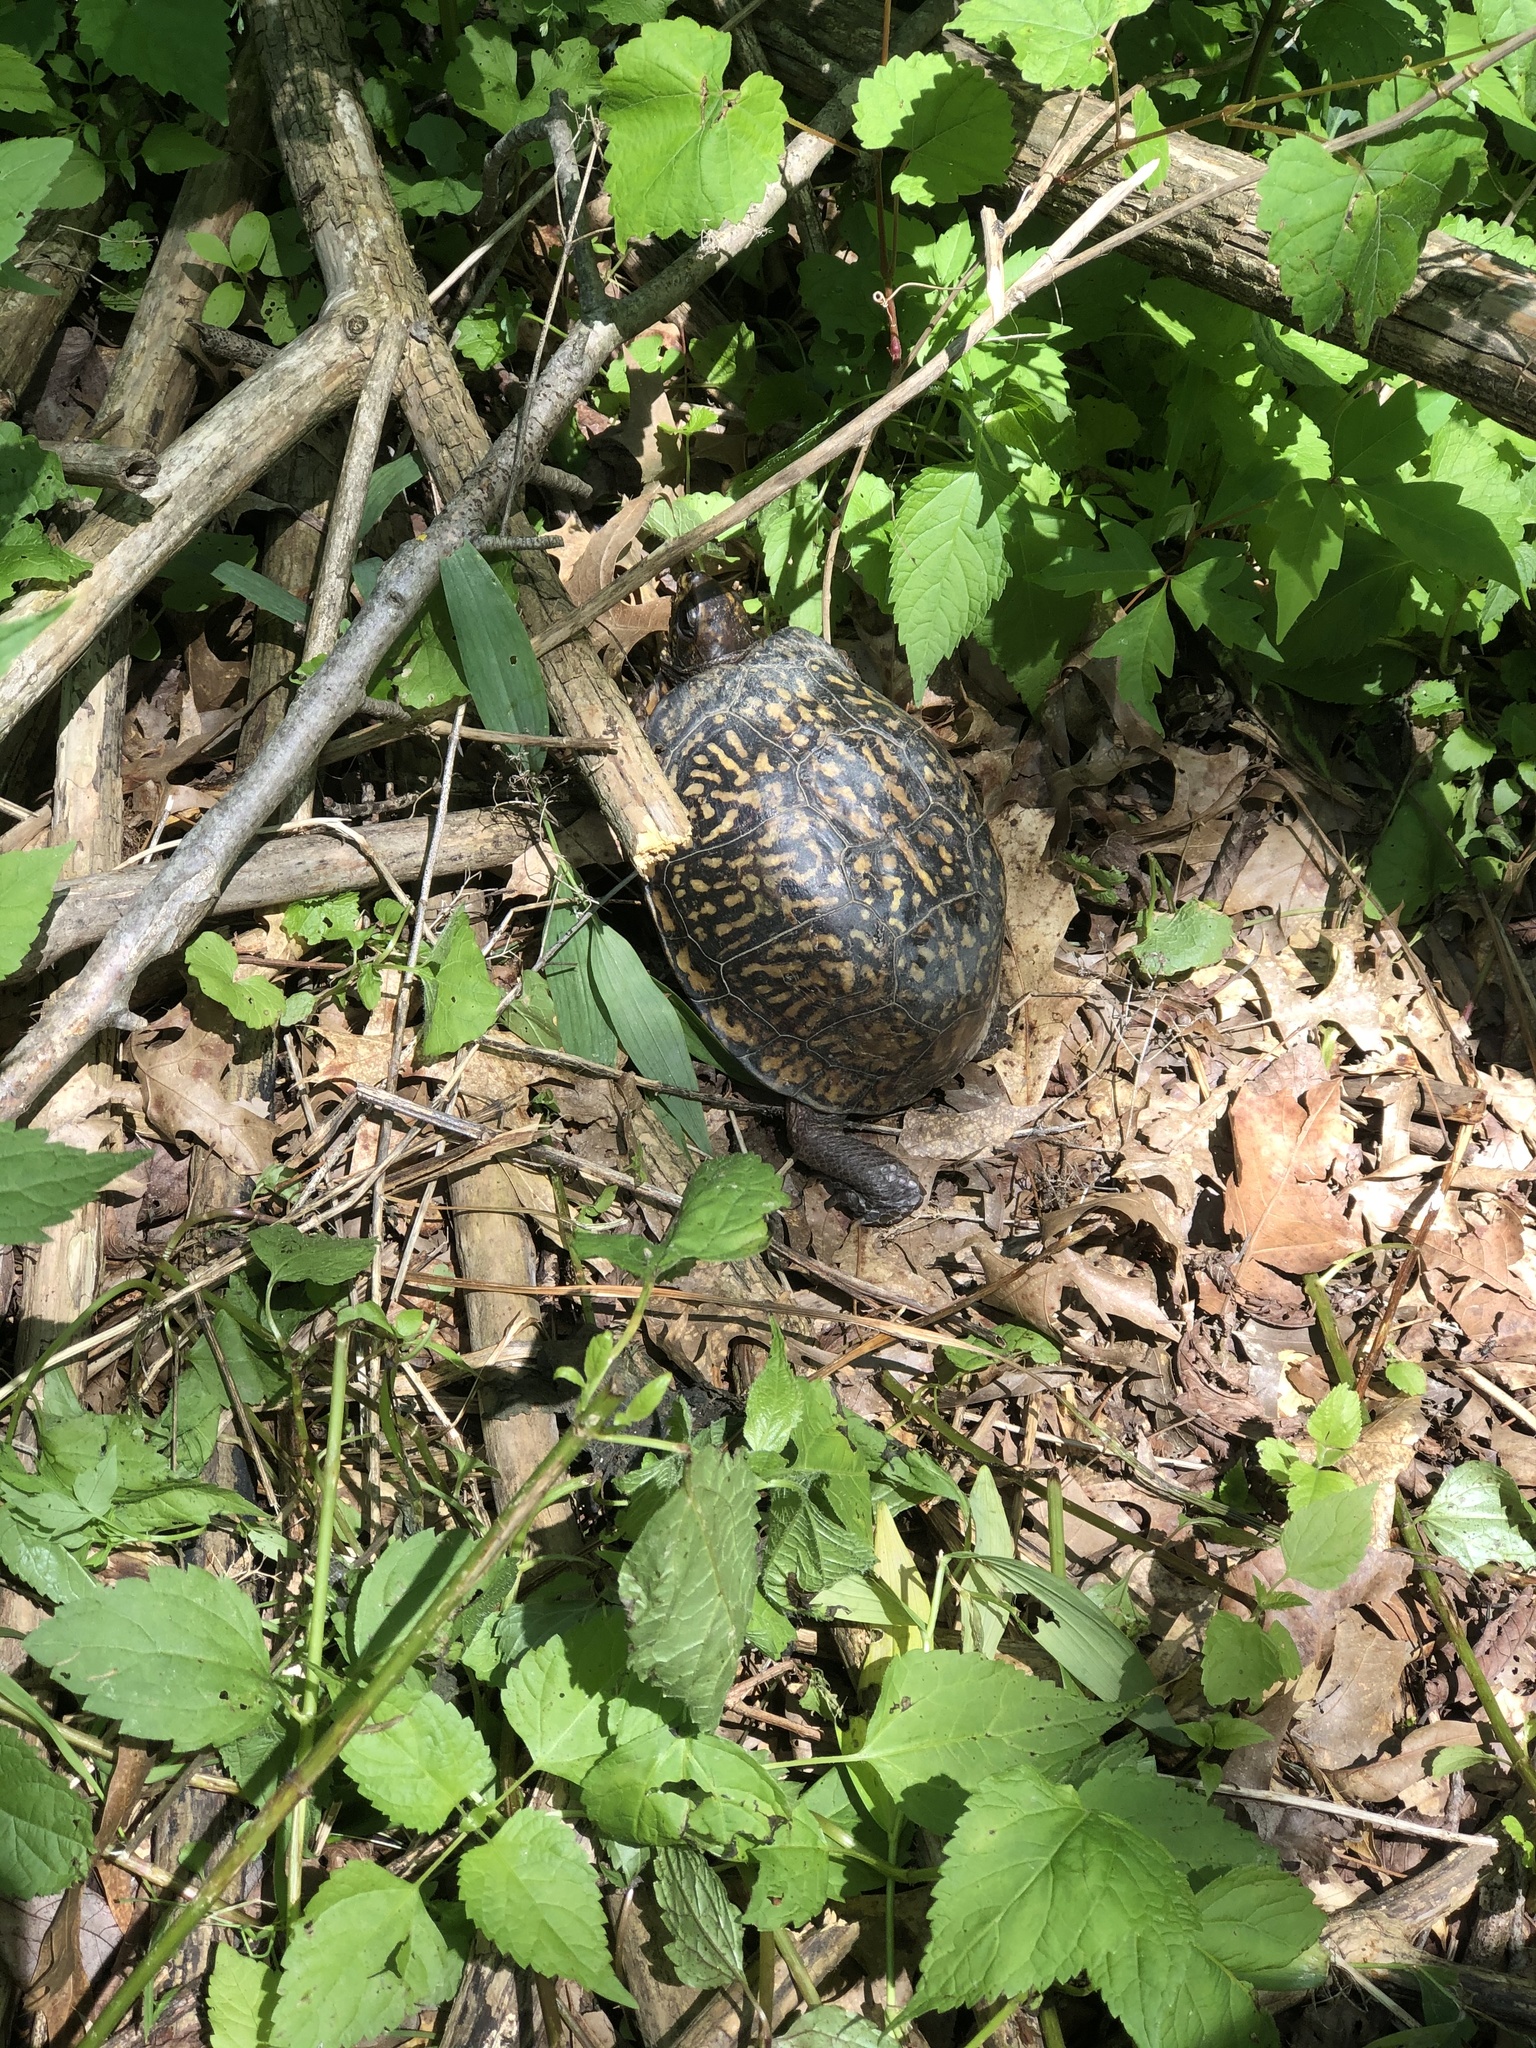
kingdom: Animalia
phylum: Chordata
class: Testudines
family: Emydidae
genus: Terrapene
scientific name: Terrapene carolina
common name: Common box turtle
